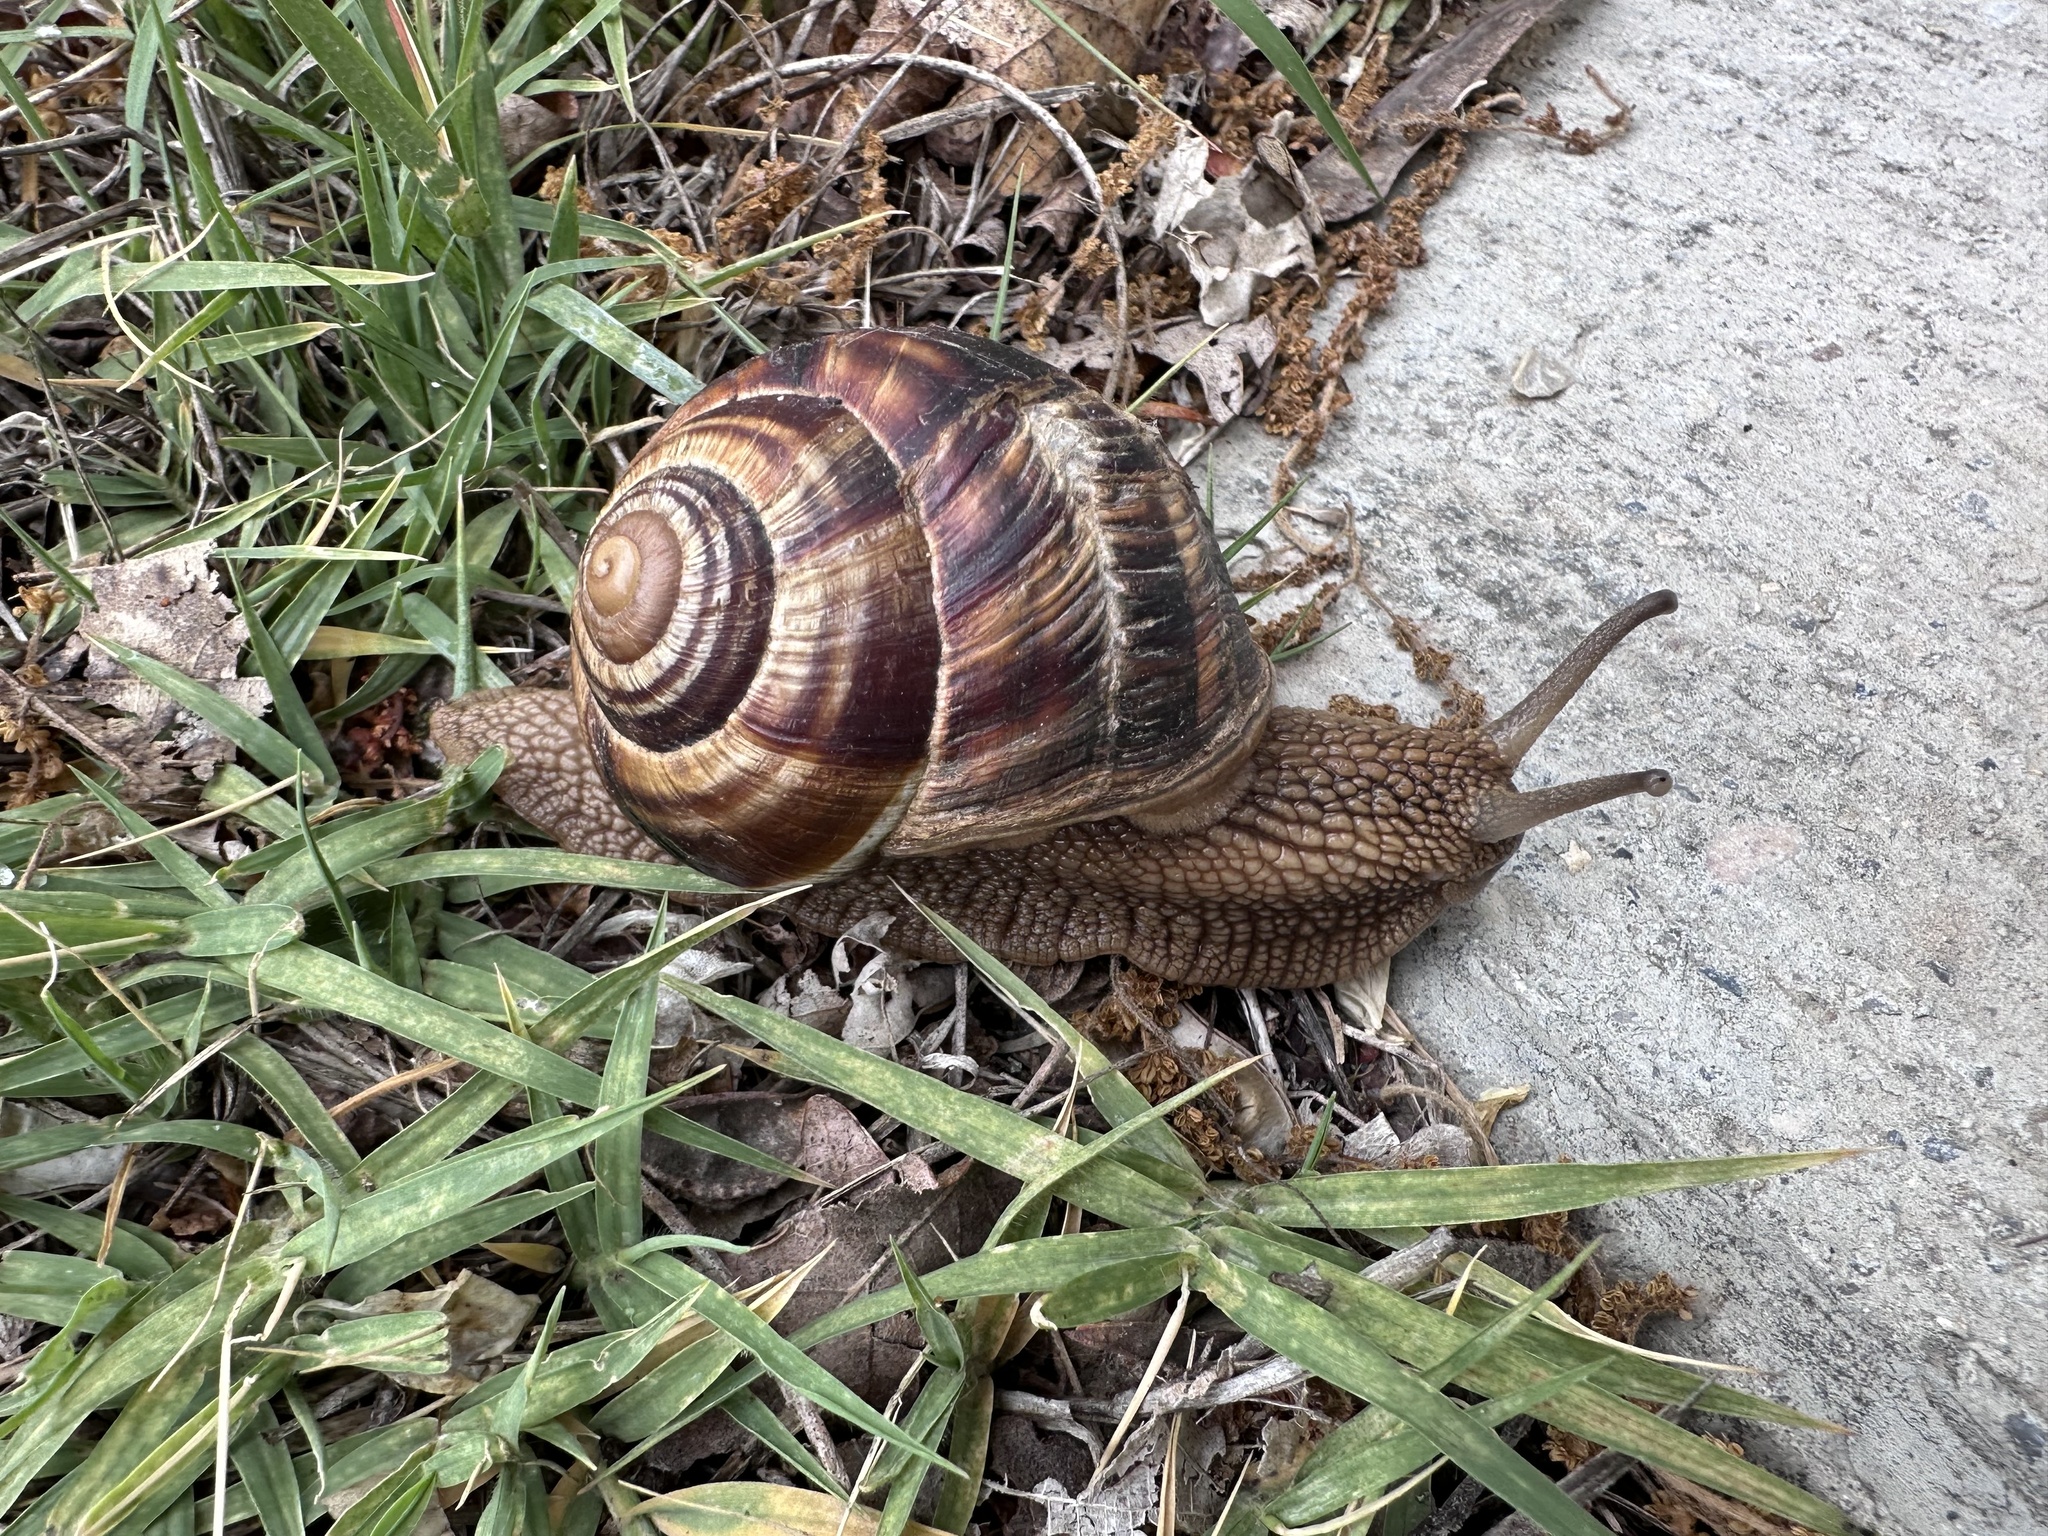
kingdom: Animalia
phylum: Mollusca
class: Gastropoda
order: Stylommatophora
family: Helicidae
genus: Helix
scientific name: Helix lucorum
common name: Turkish snail
